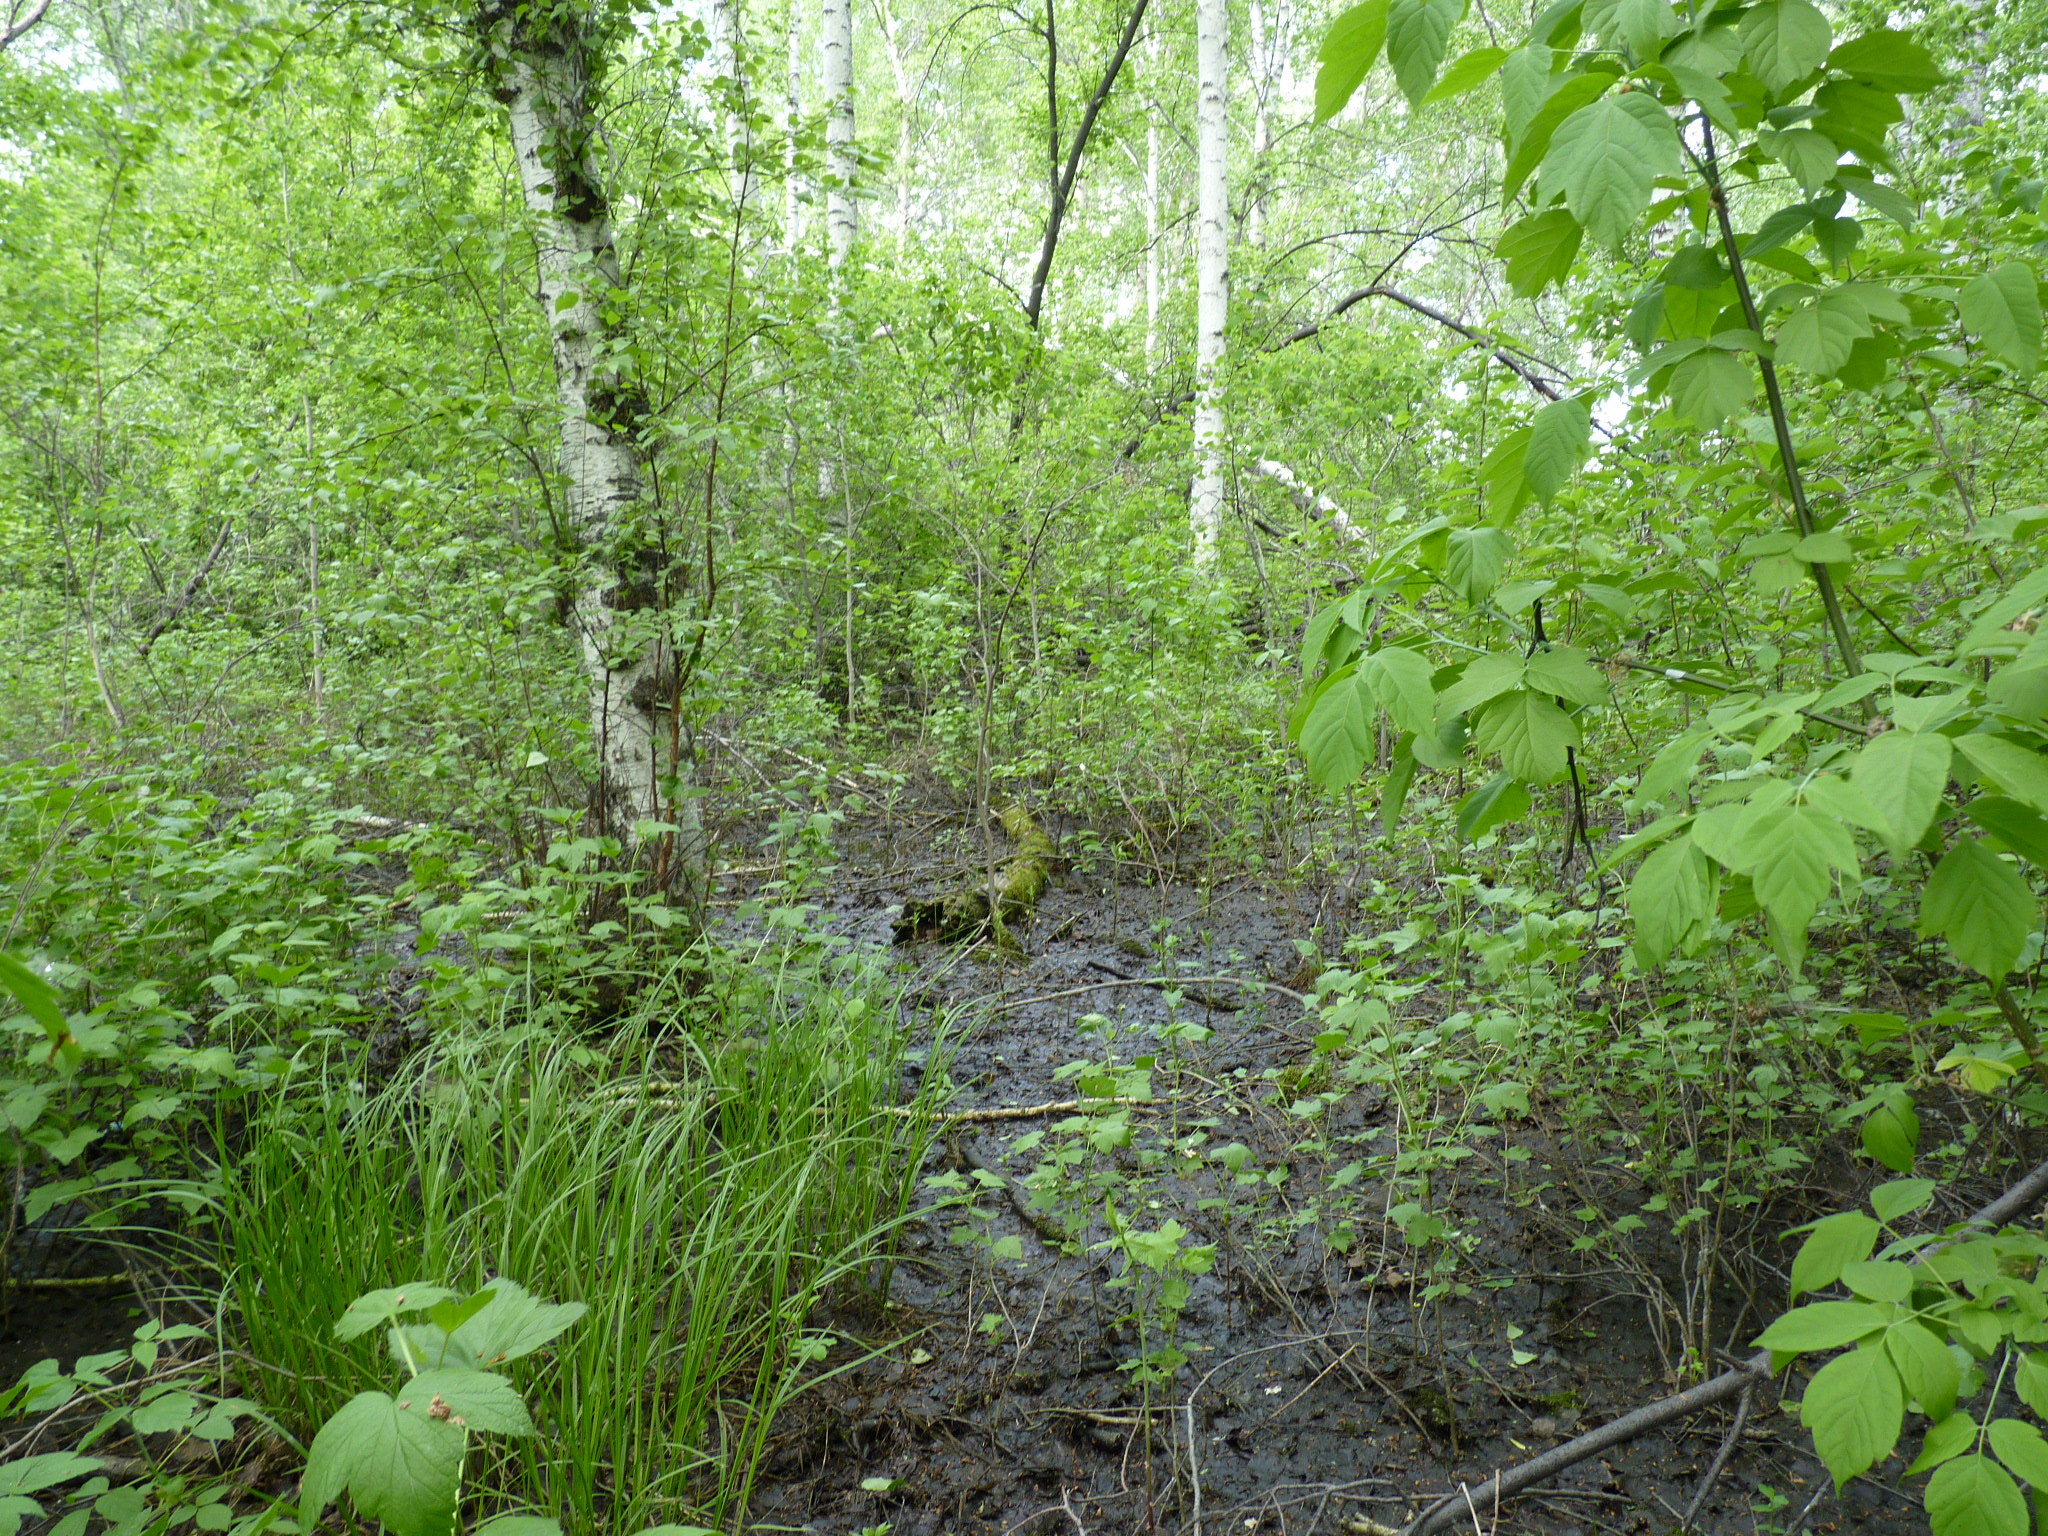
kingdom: Plantae
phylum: Tracheophyta
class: Polypodiopsida
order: Polypodiales
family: Athyriaceae
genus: Athyrium
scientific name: Athyrium filix-femina
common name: Lady fern
